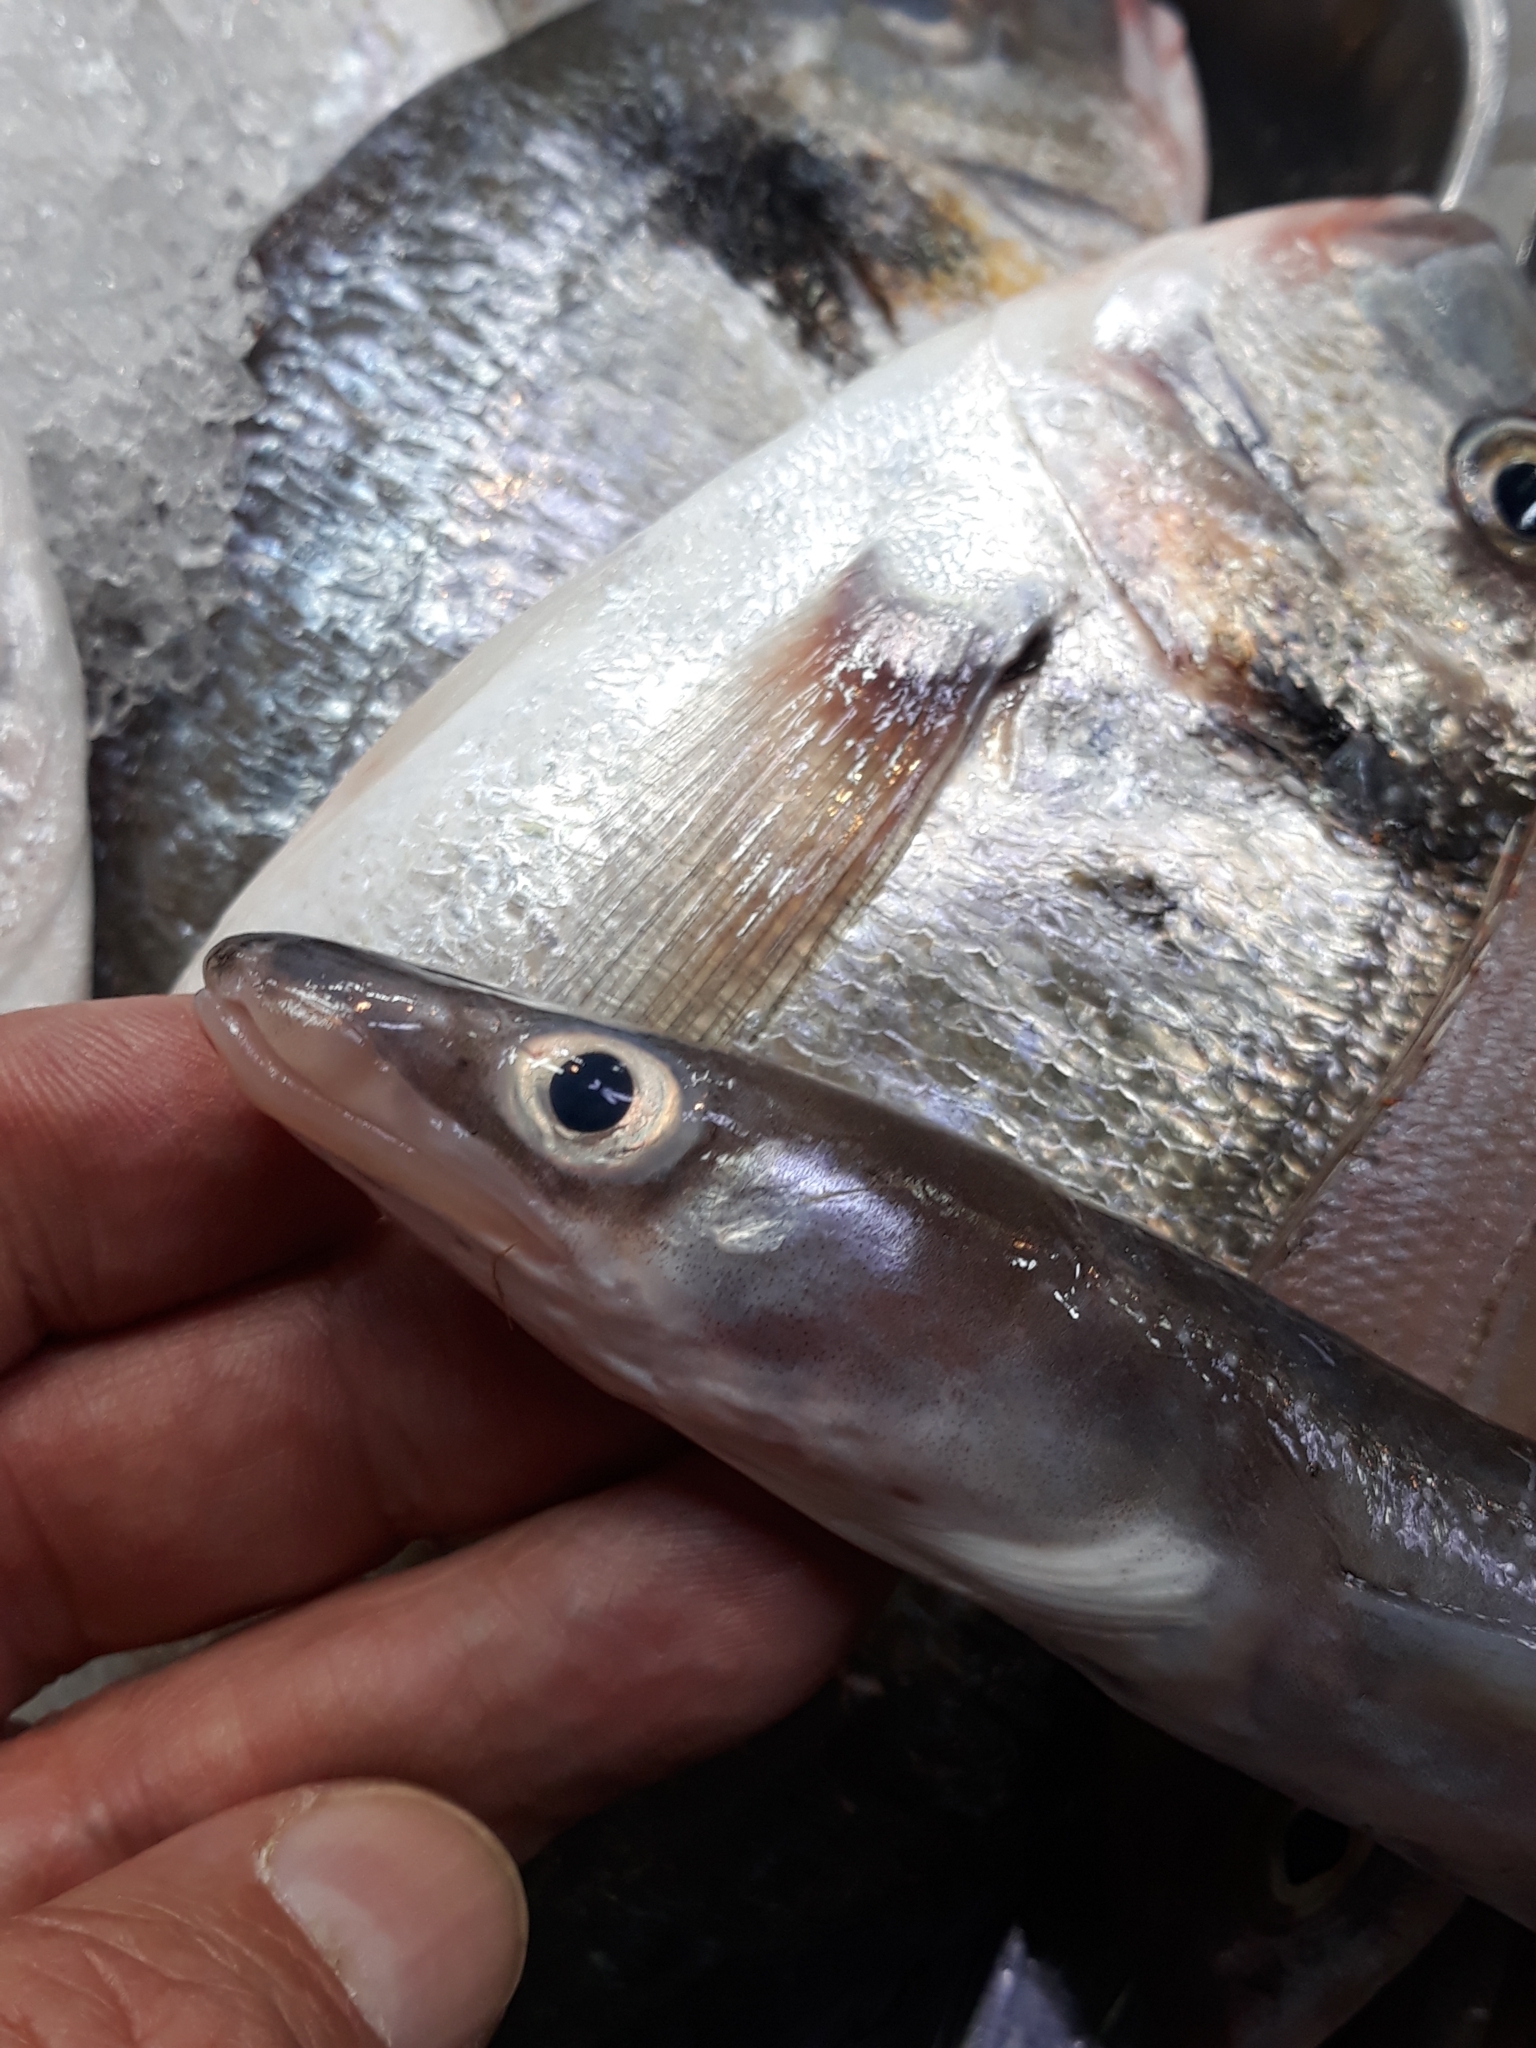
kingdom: Animalia
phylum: Chordata
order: Anguilliformes
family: Congridae
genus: Conger
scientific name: Conger conger
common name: Conger eel
